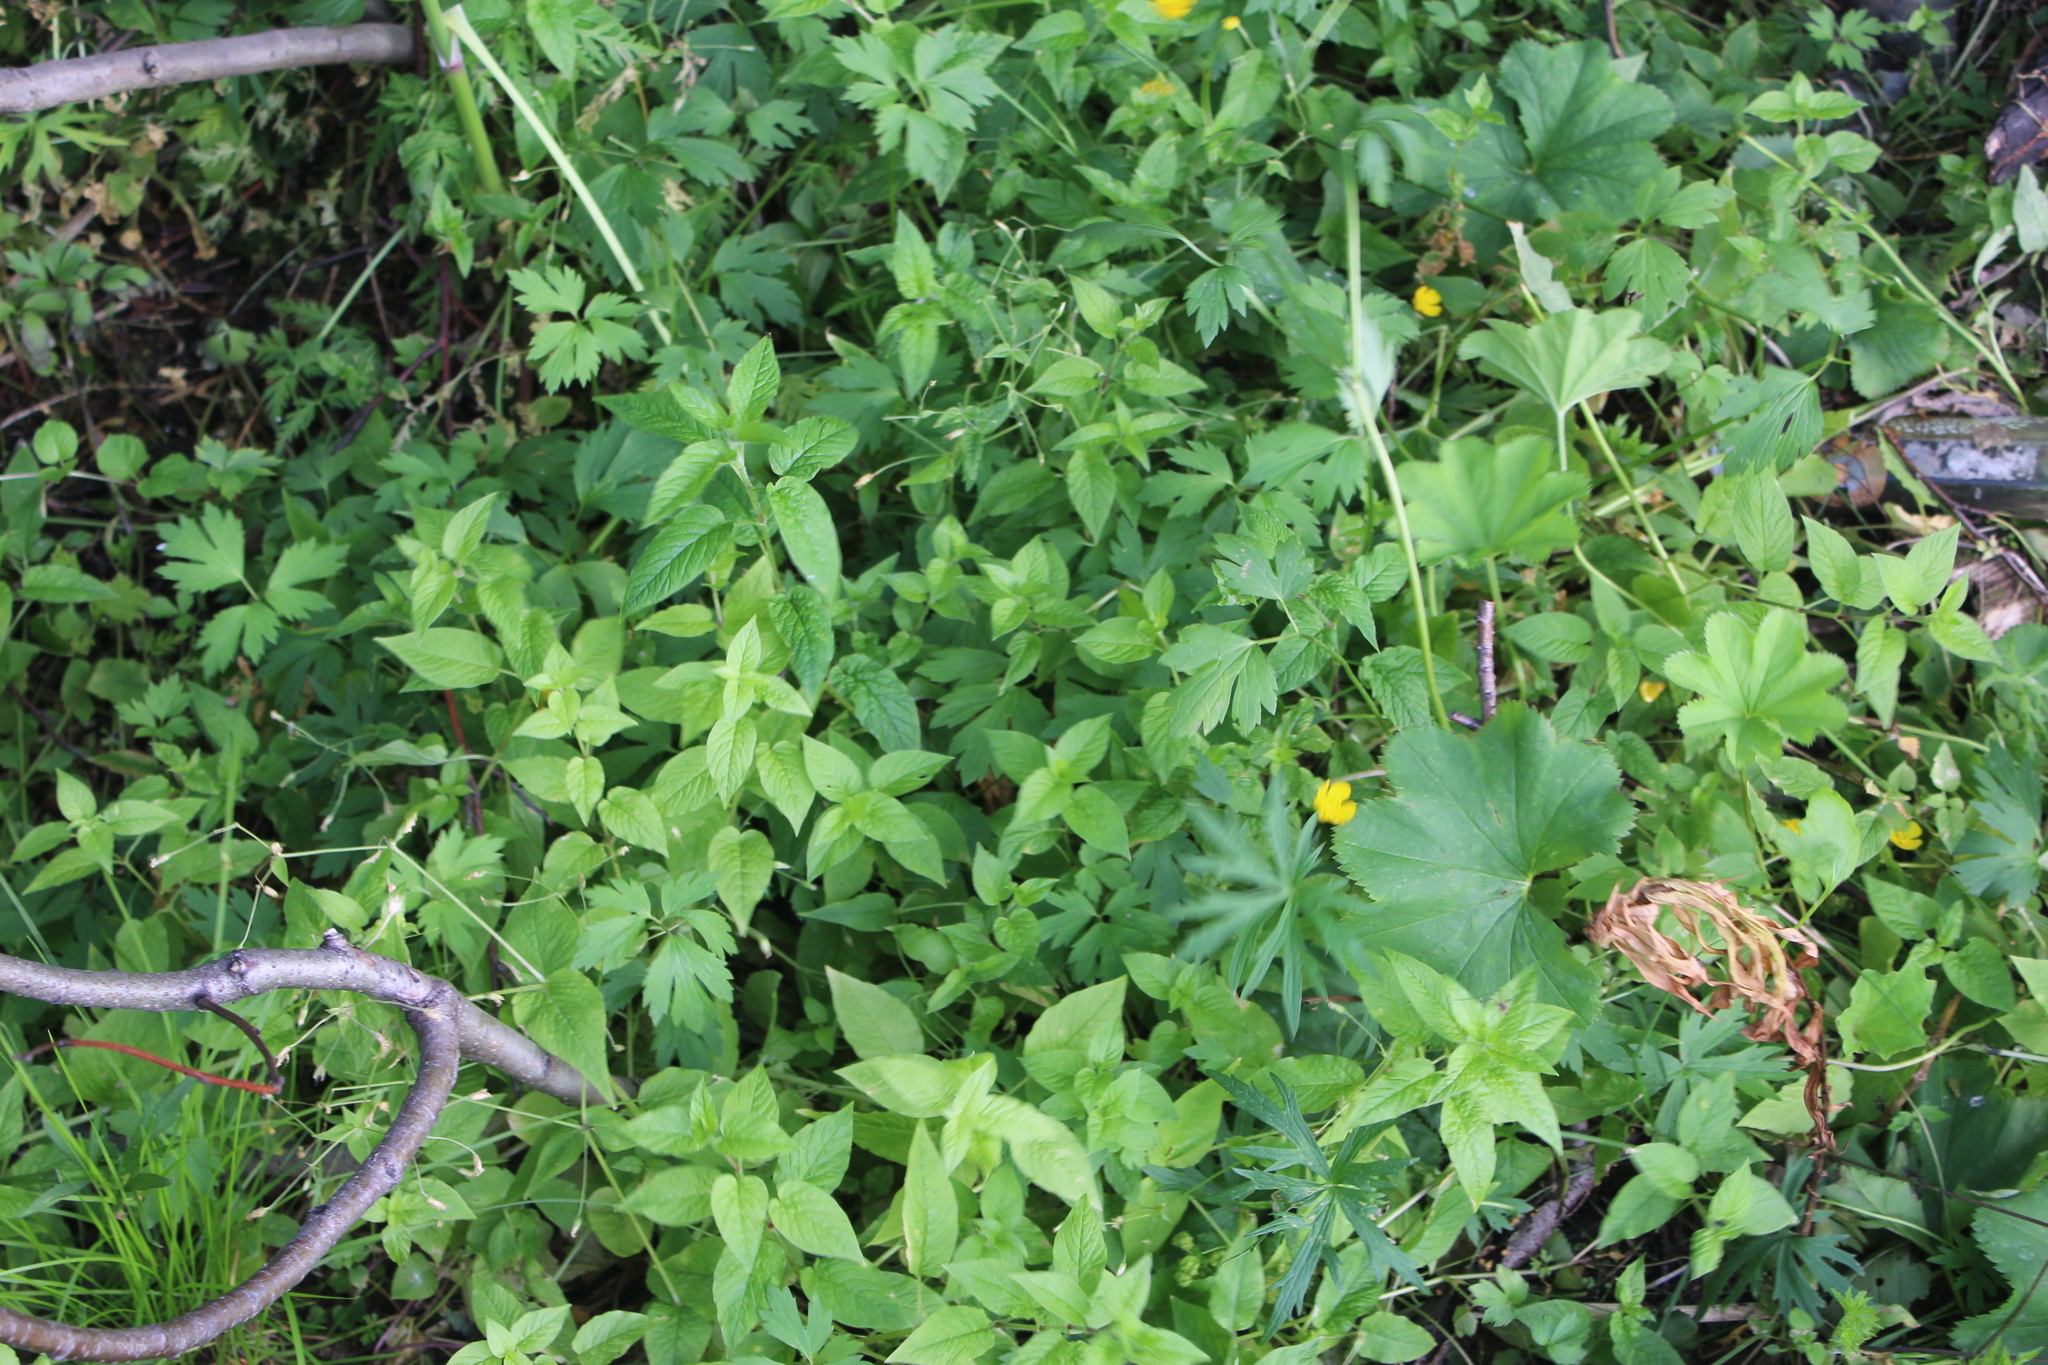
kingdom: Plantae
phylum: Tracheophyta
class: Magnoliopsida
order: Caryophyllales
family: Caryophyllaceae
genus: Stellaria
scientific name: Stellaria nemorum
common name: Wood stitchwort
